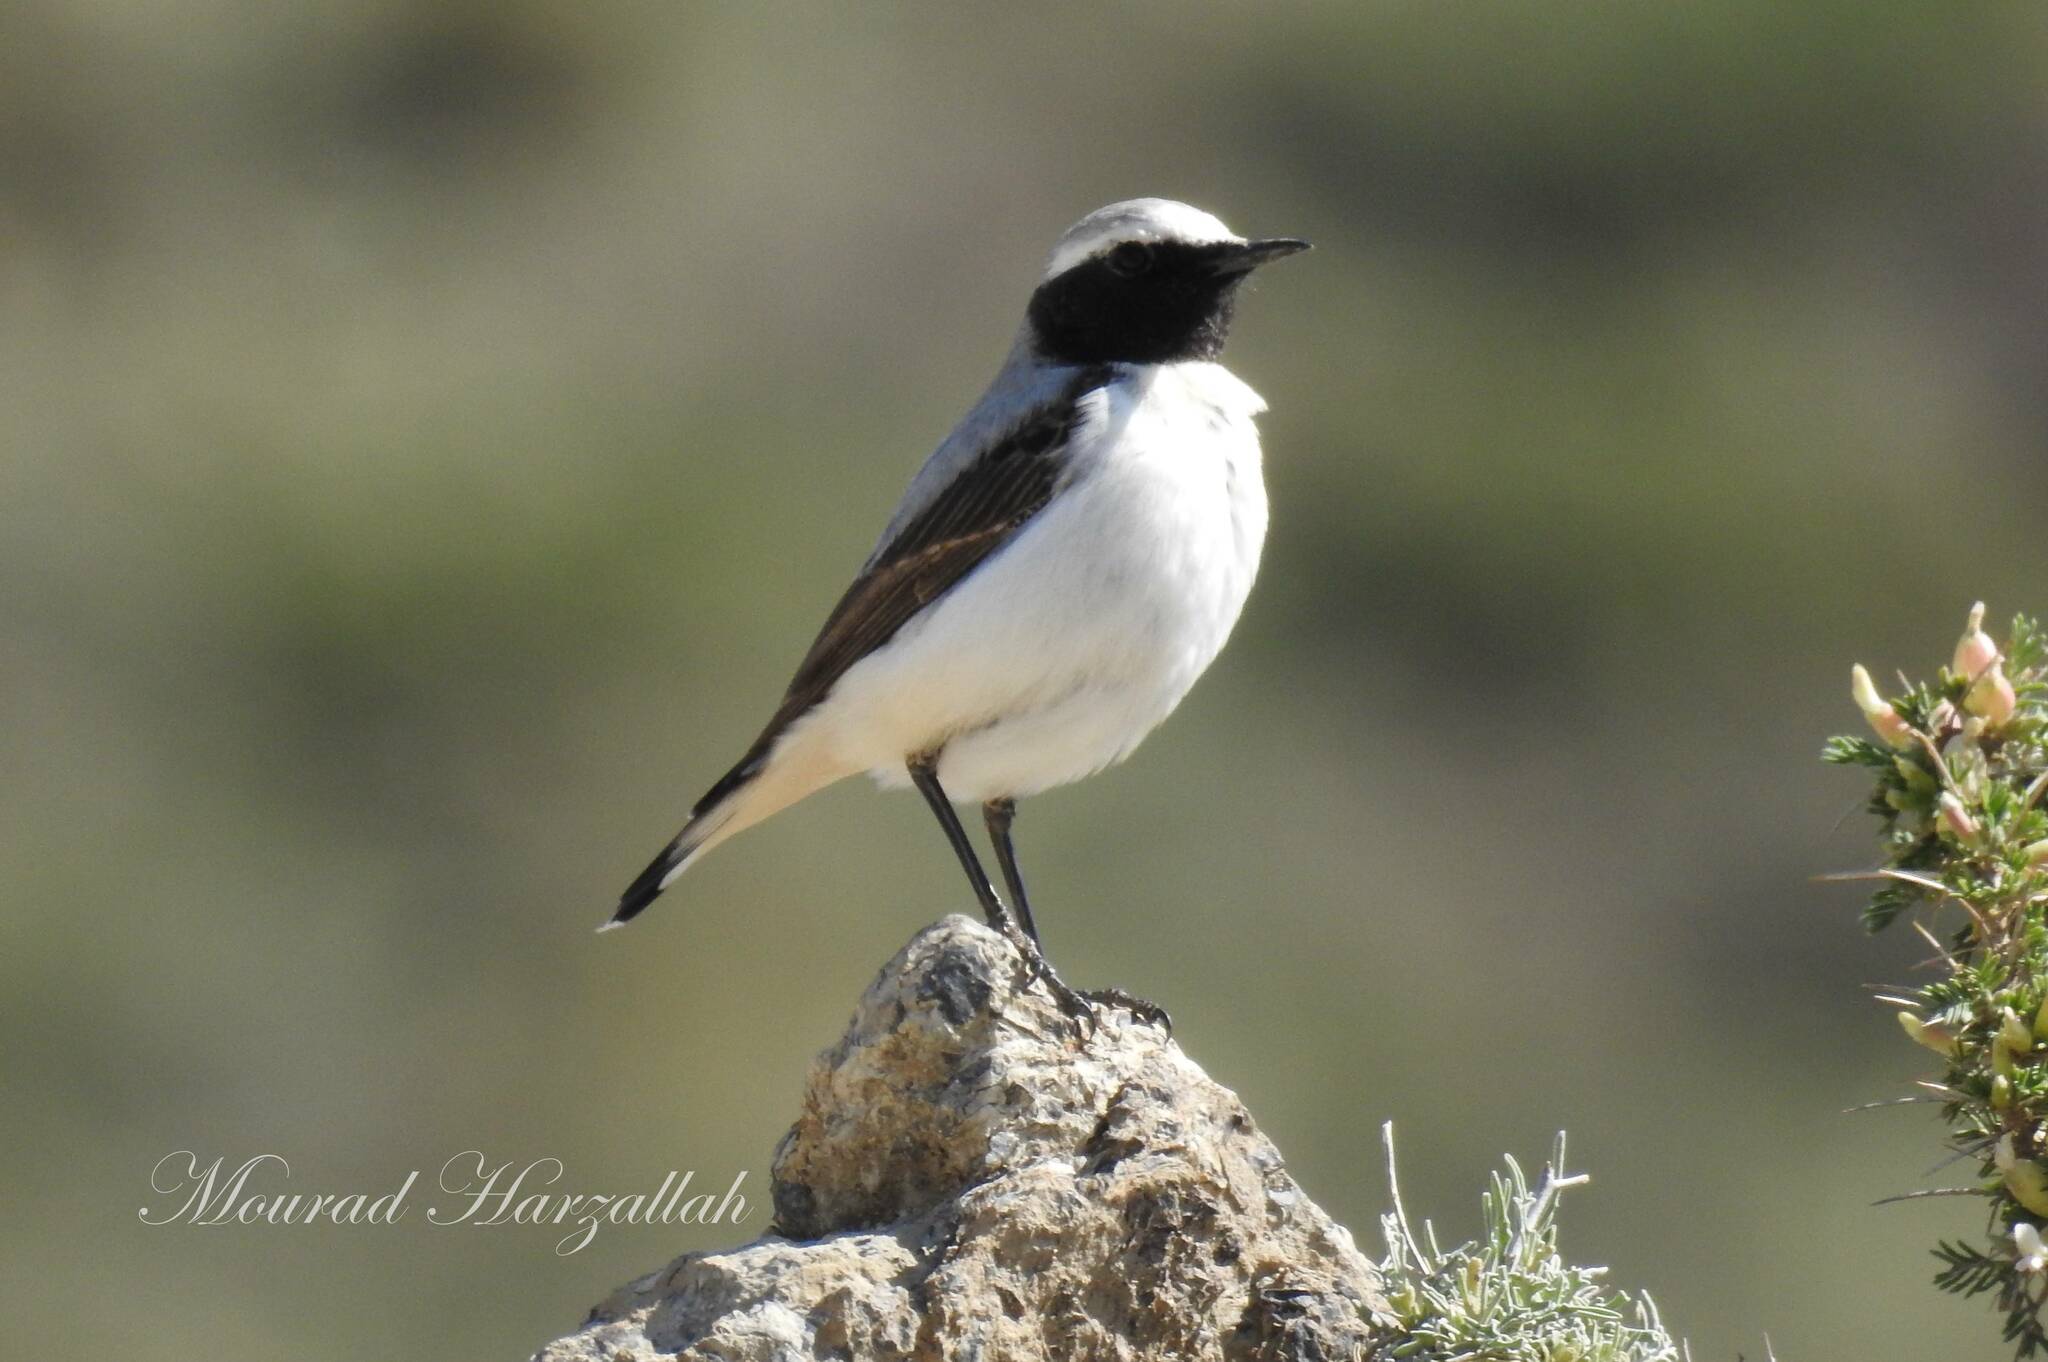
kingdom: Animalia
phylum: Chordata
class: Aves
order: Passeriformes
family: Muscicapidae
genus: Oenanthe
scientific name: Oenanthe oenanthe
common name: Northern wheatear
